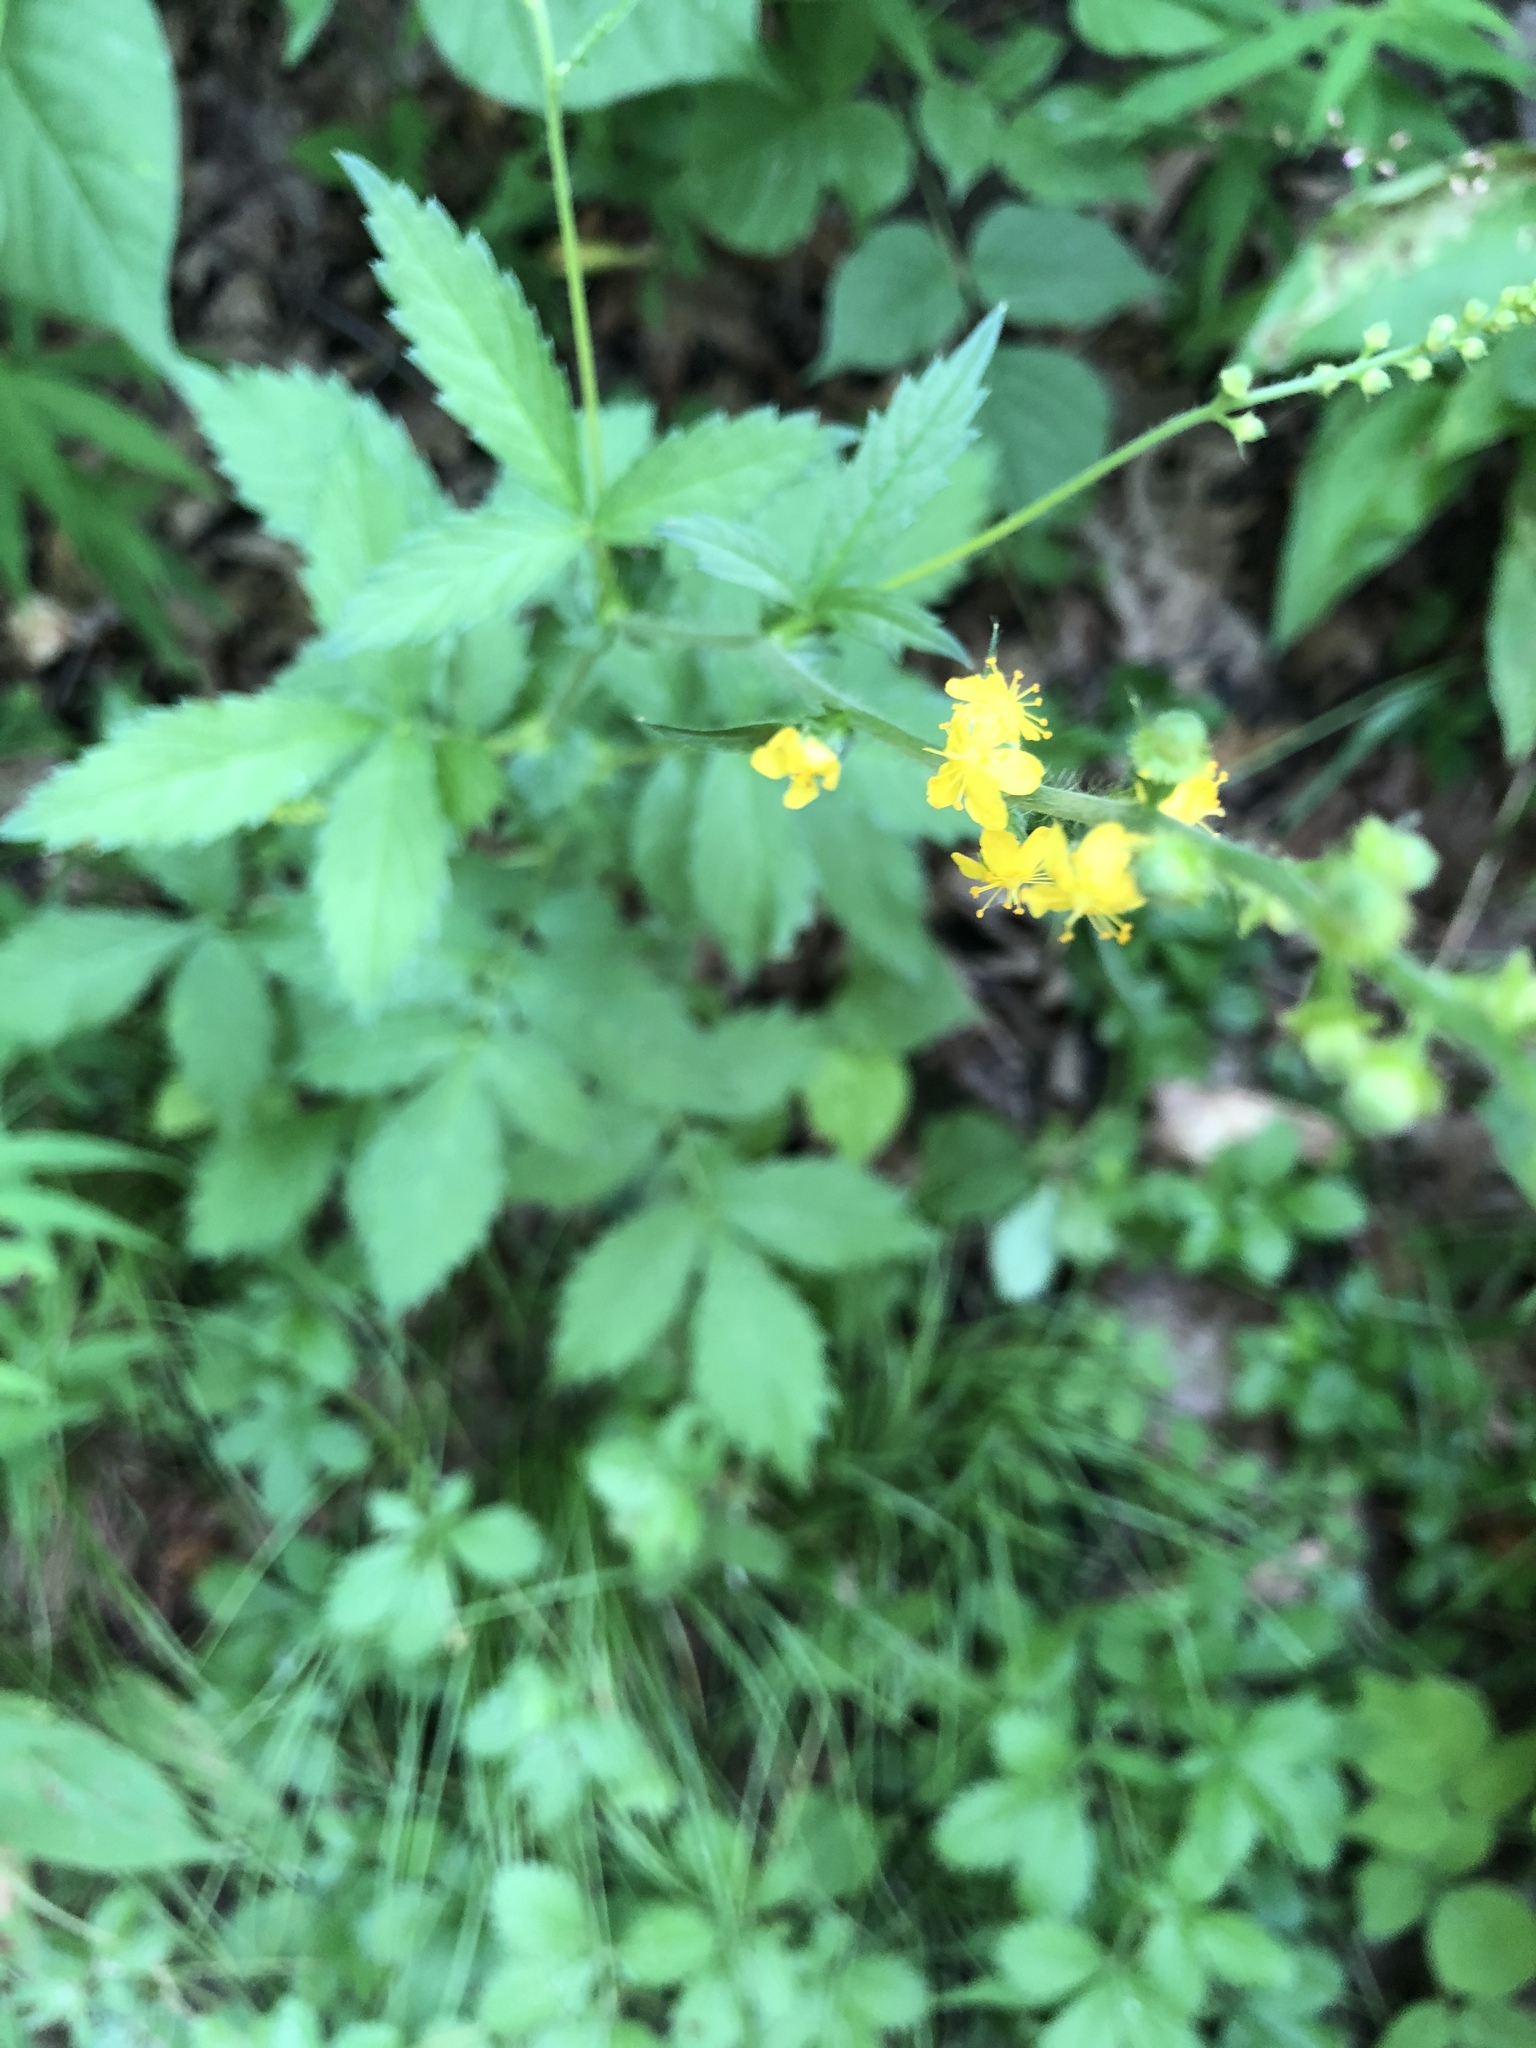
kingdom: Plantae
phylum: Tracheophyta
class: Magnoliopsida
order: Rosales
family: Rosaceae
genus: Agrimonia
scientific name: Agrimonia gryposepala
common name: Common agrimony
